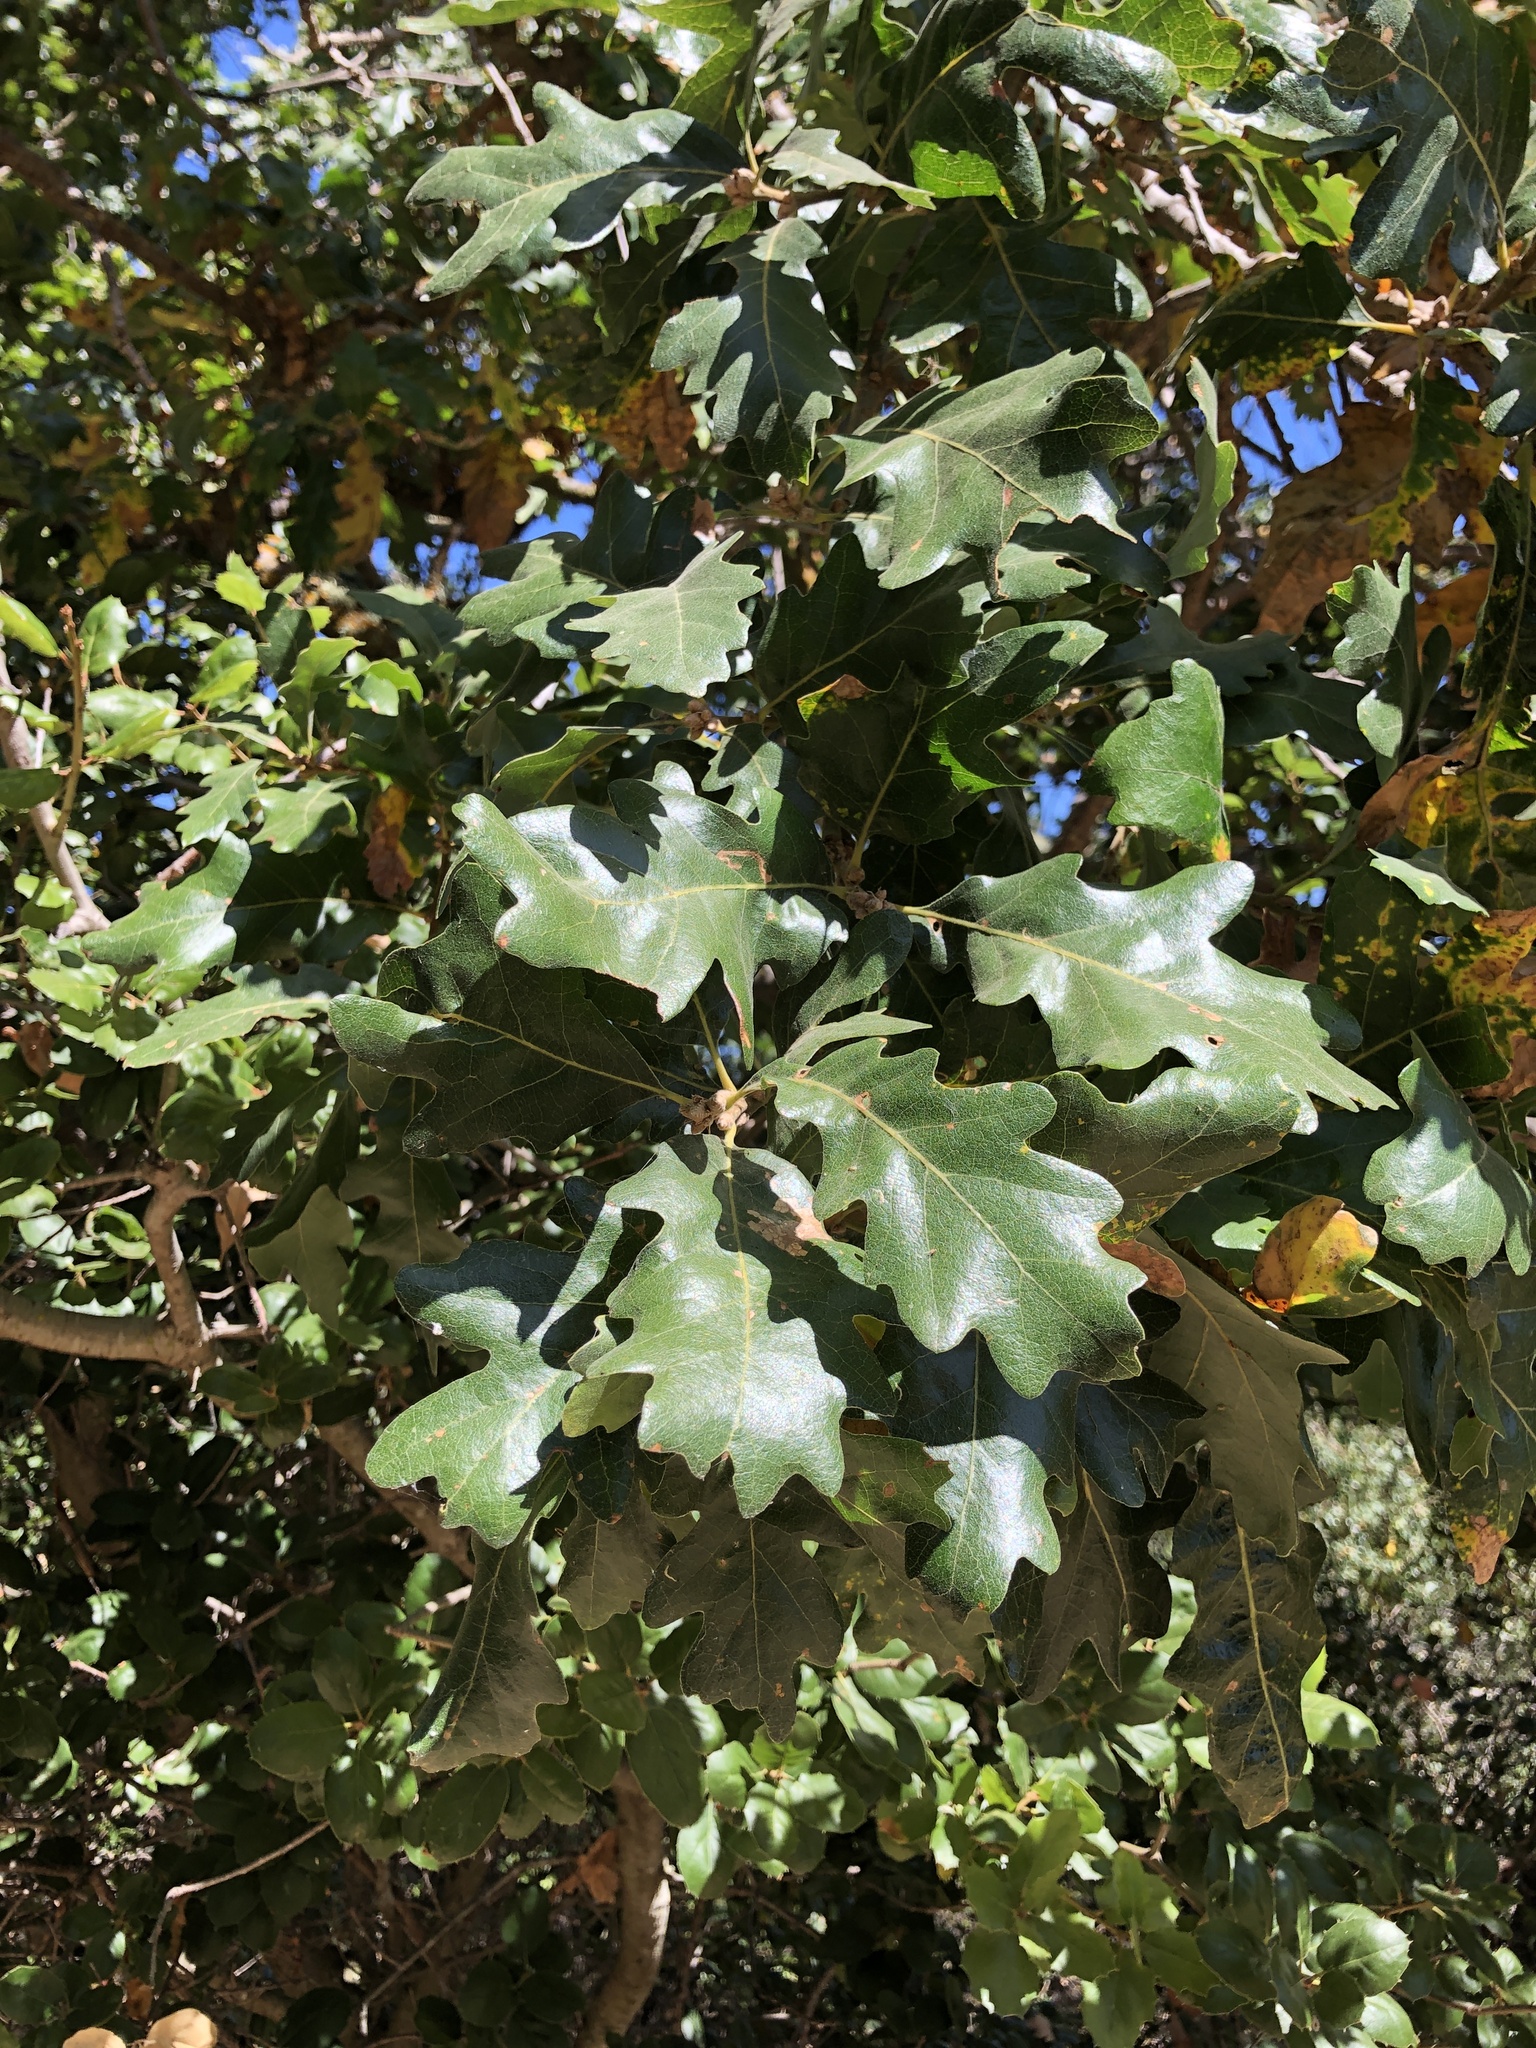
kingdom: Animalia
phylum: Arthropoda
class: Insecta
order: Hymenoptera
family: Cynipidae
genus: Andricus
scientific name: Andricus
